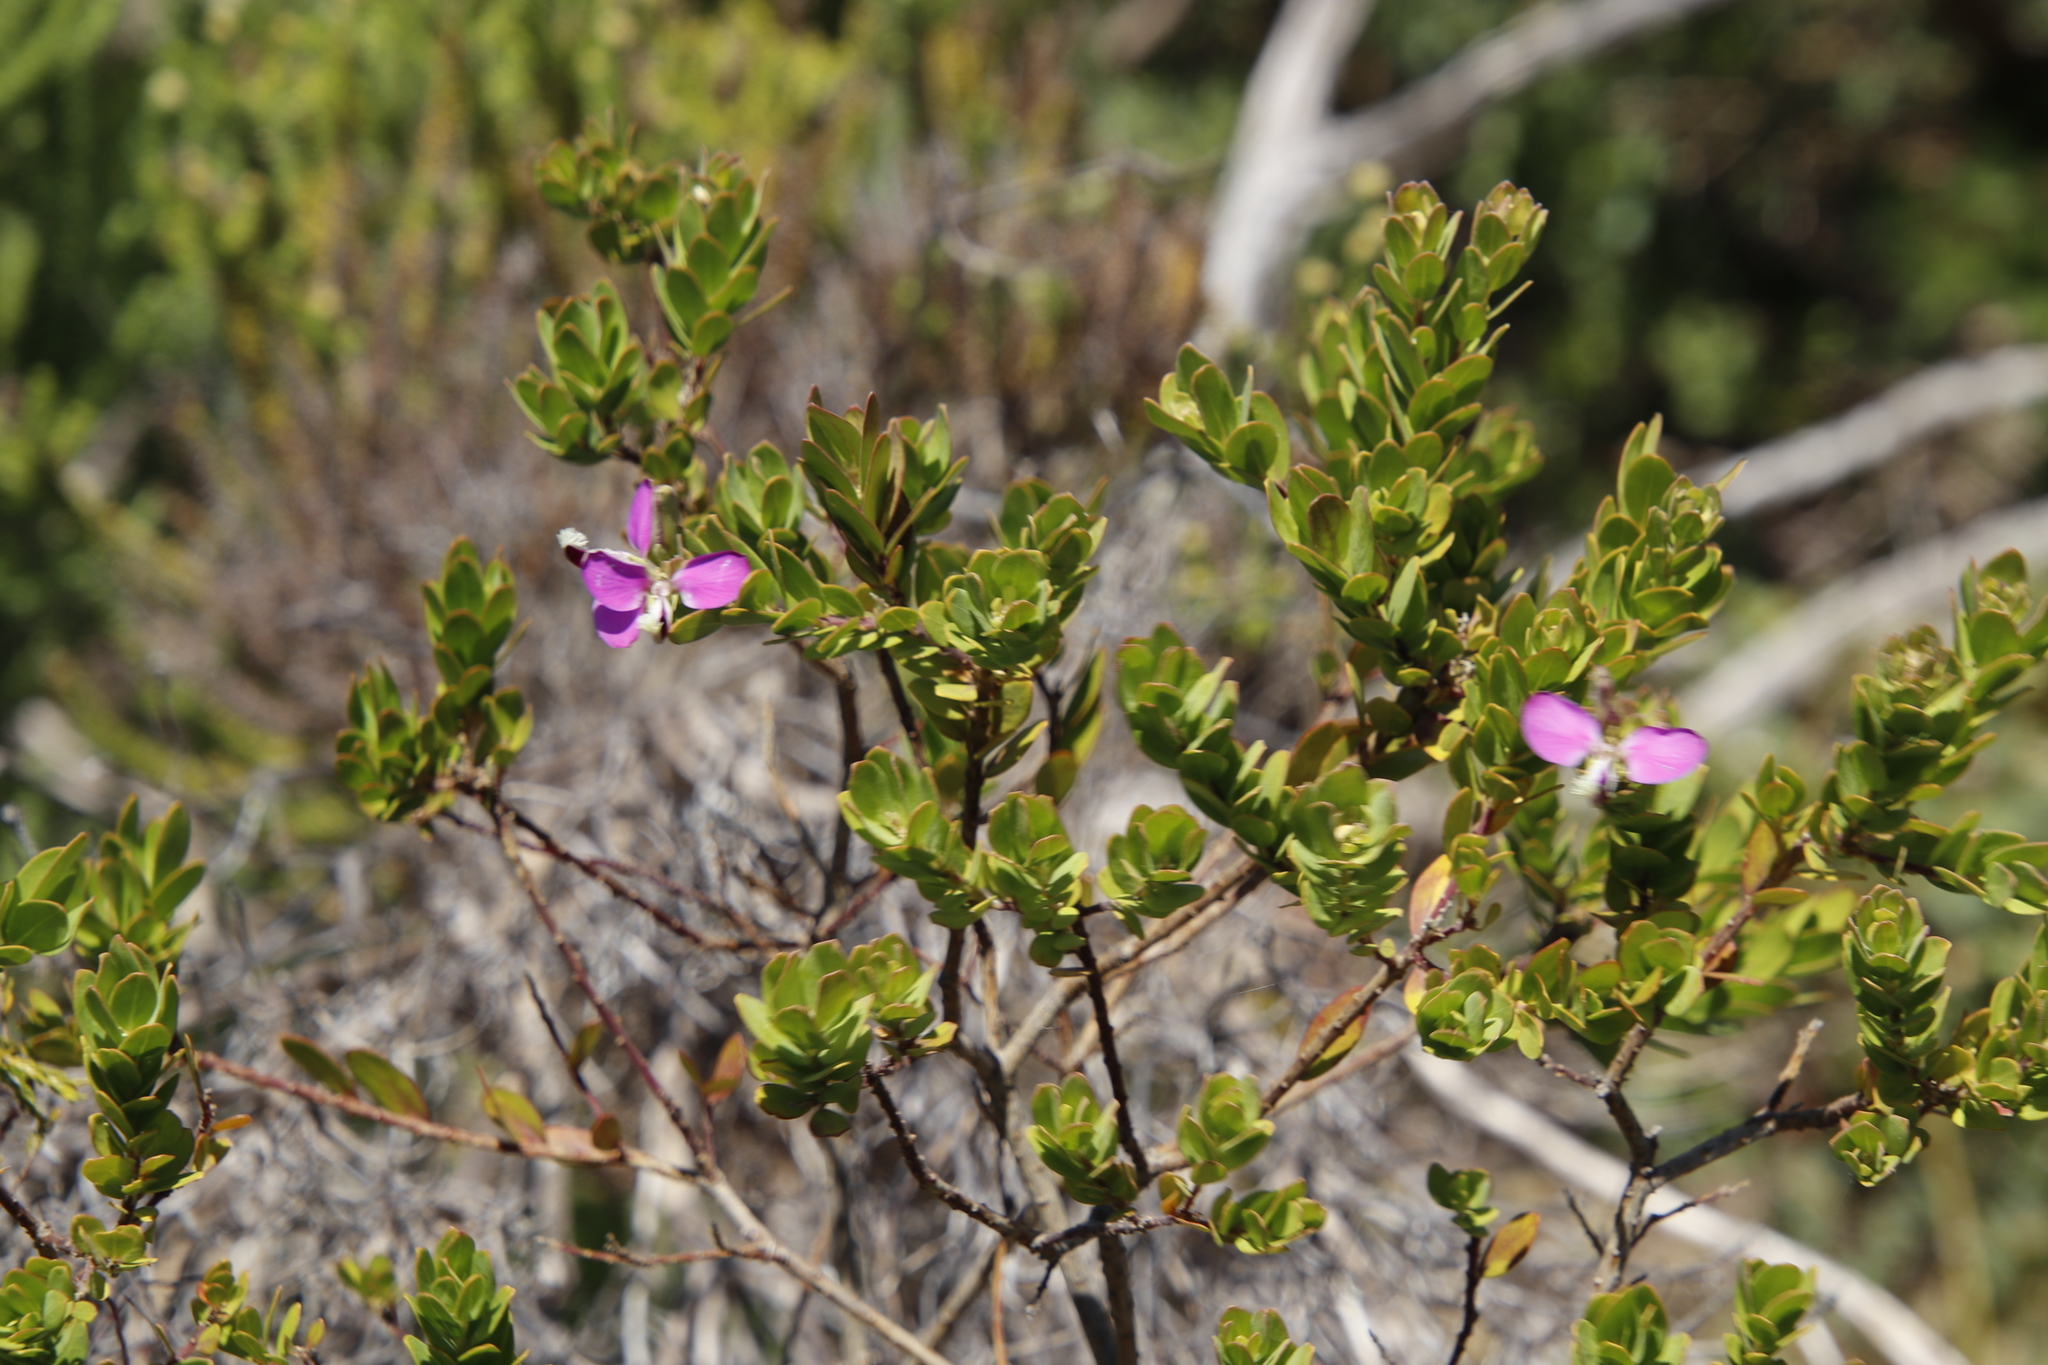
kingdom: Plantae
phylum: Tracheophyta
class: Magnoliopsida
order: Fabales
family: Polygalaceae
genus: Polygala
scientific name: Polygala myrtifolia
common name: Myrtle-leaf milkwort
